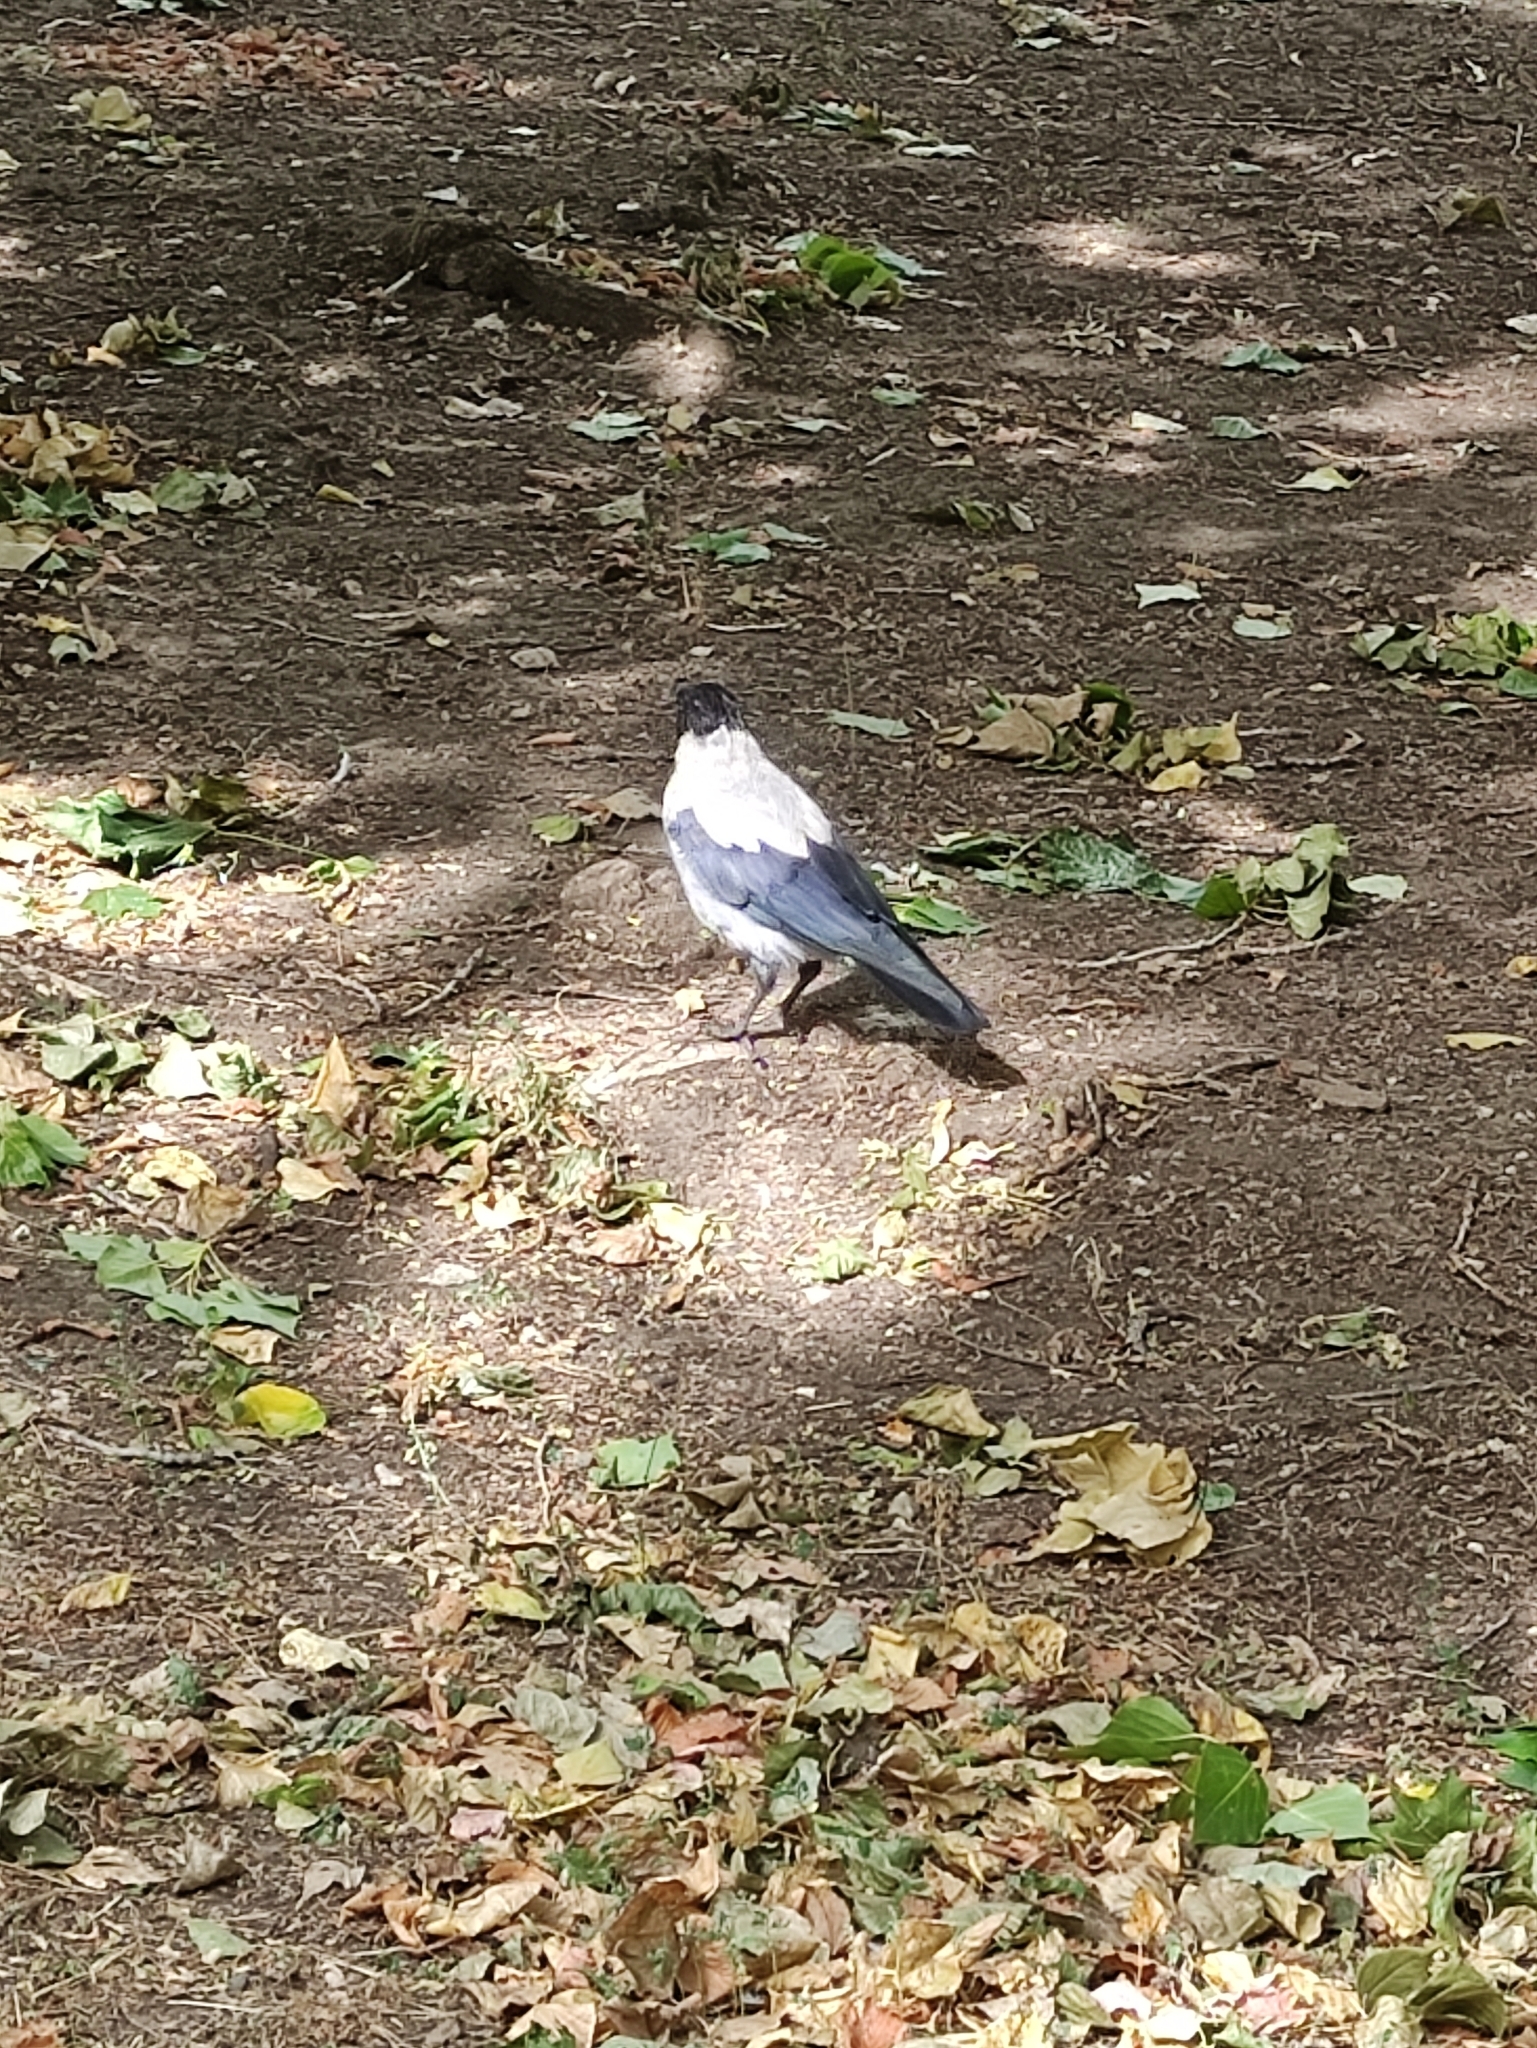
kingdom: Animalia
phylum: Chordata
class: Aves
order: Passeriformes
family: Corvidae
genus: Corvus
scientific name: Corvus cornix
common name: Hooded crow
